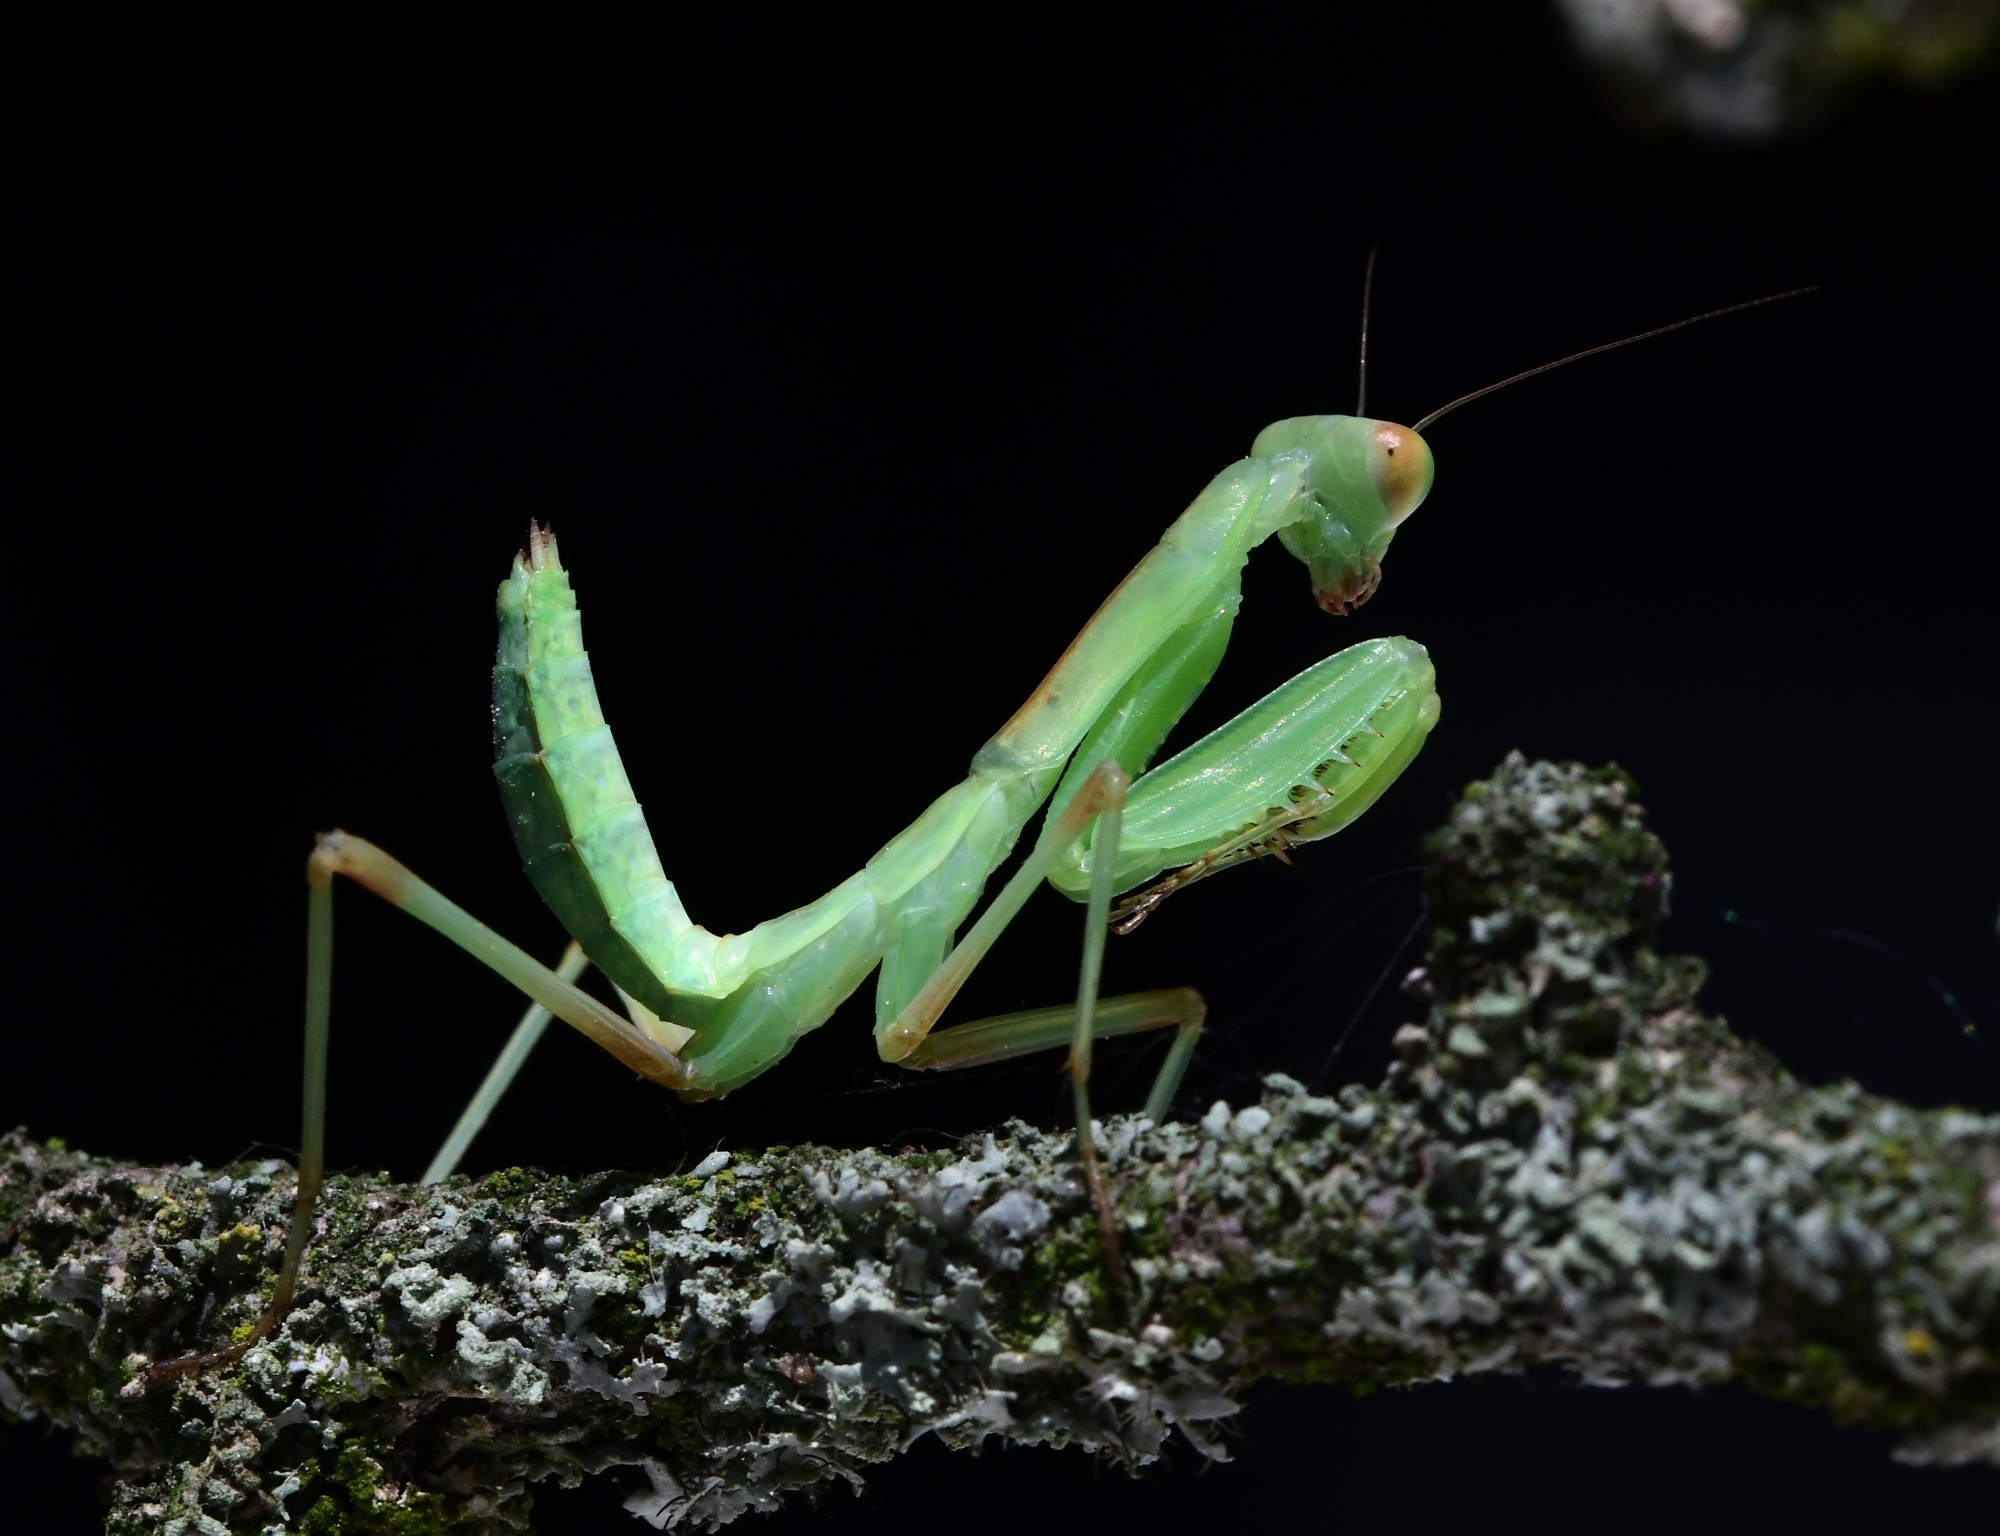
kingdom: Animalia
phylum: Arthropoda
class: Insecta
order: Mantodea
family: Mantidae
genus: Hierodula
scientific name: Hierodula transcaucasica
